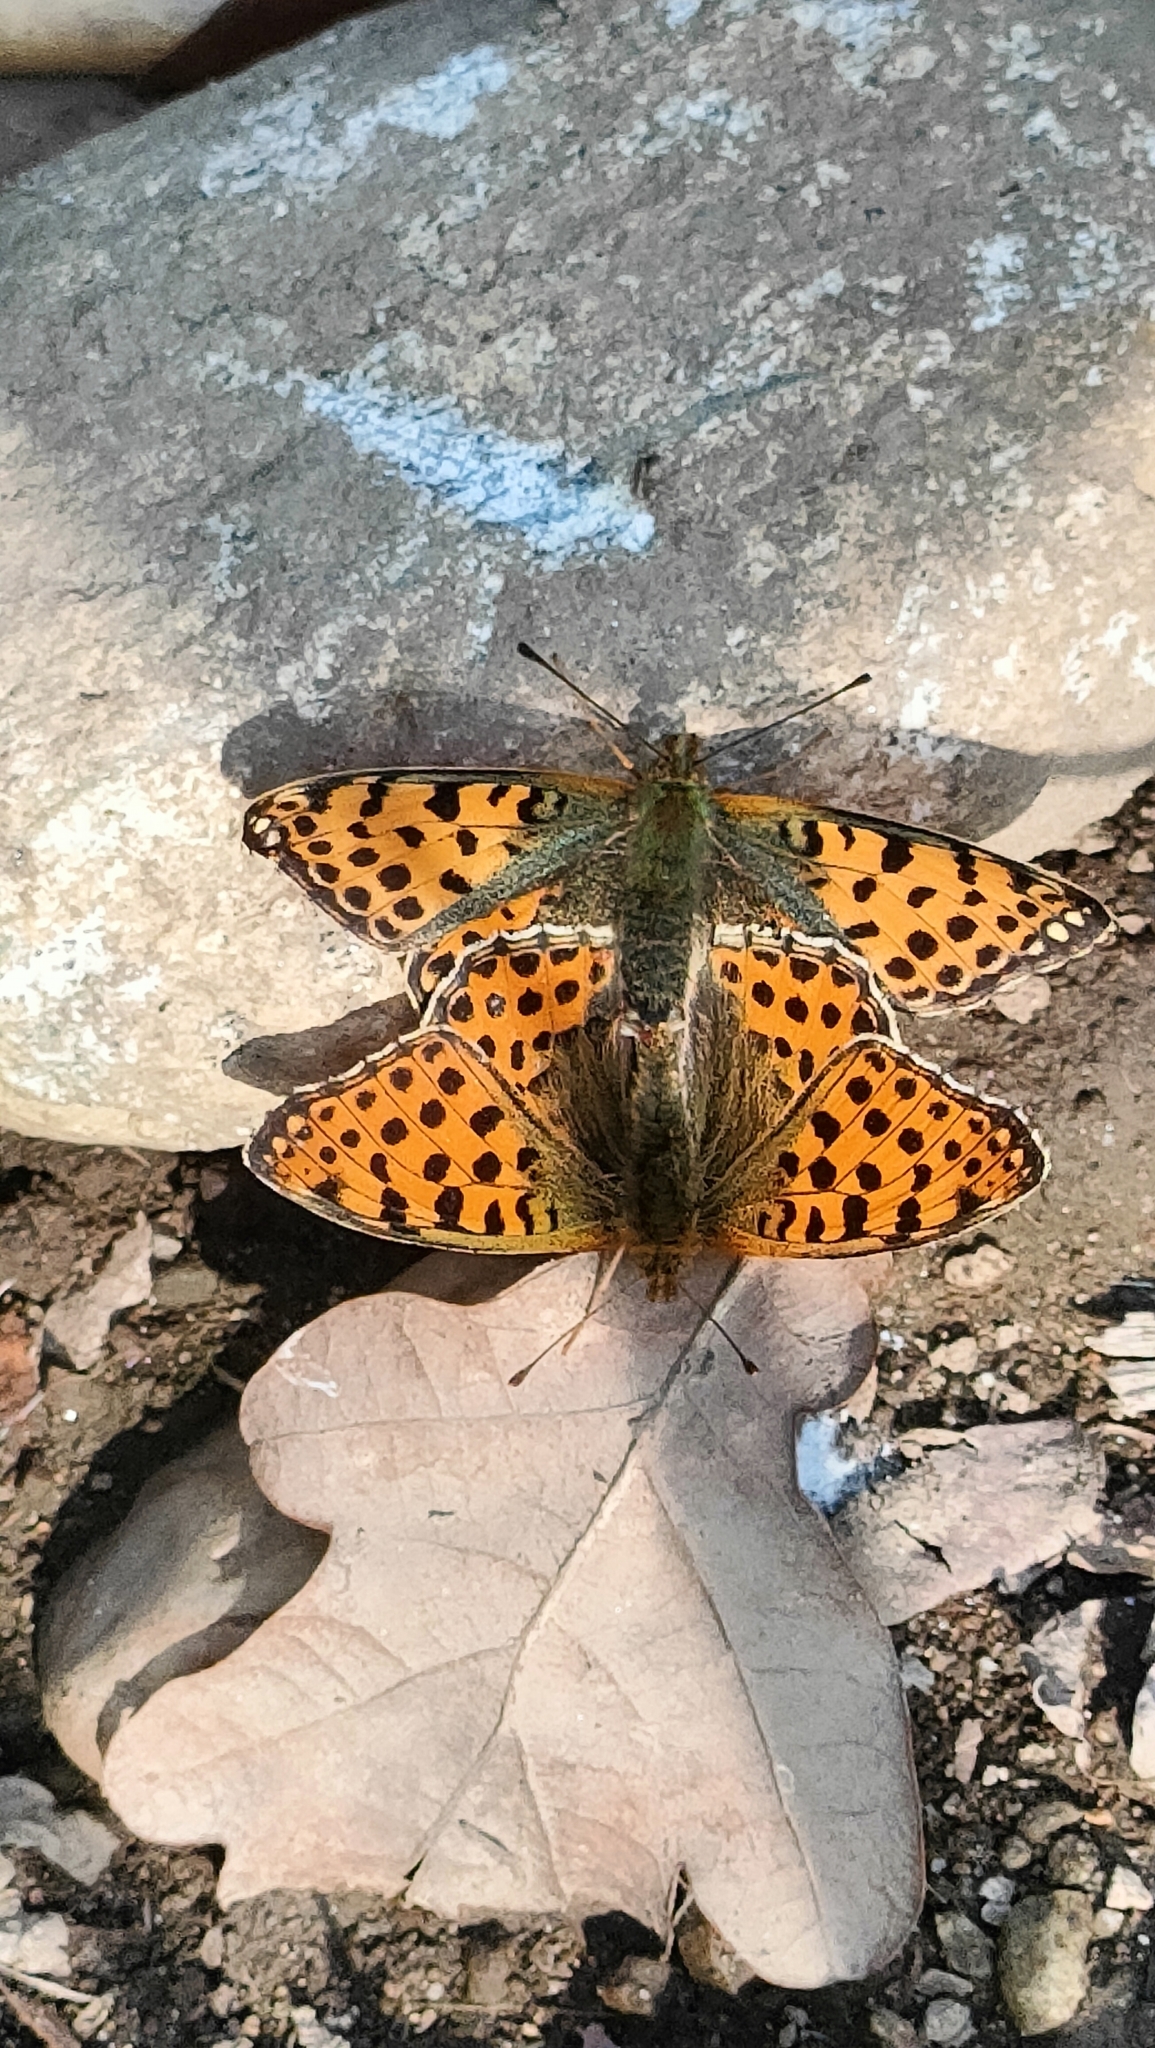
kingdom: Animalia
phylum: Arthropoda
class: Insecta
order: Lepidoptera
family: Nymphalidae
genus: Issoria
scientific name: Issoria lathonia
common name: Queen of spain fritillary
